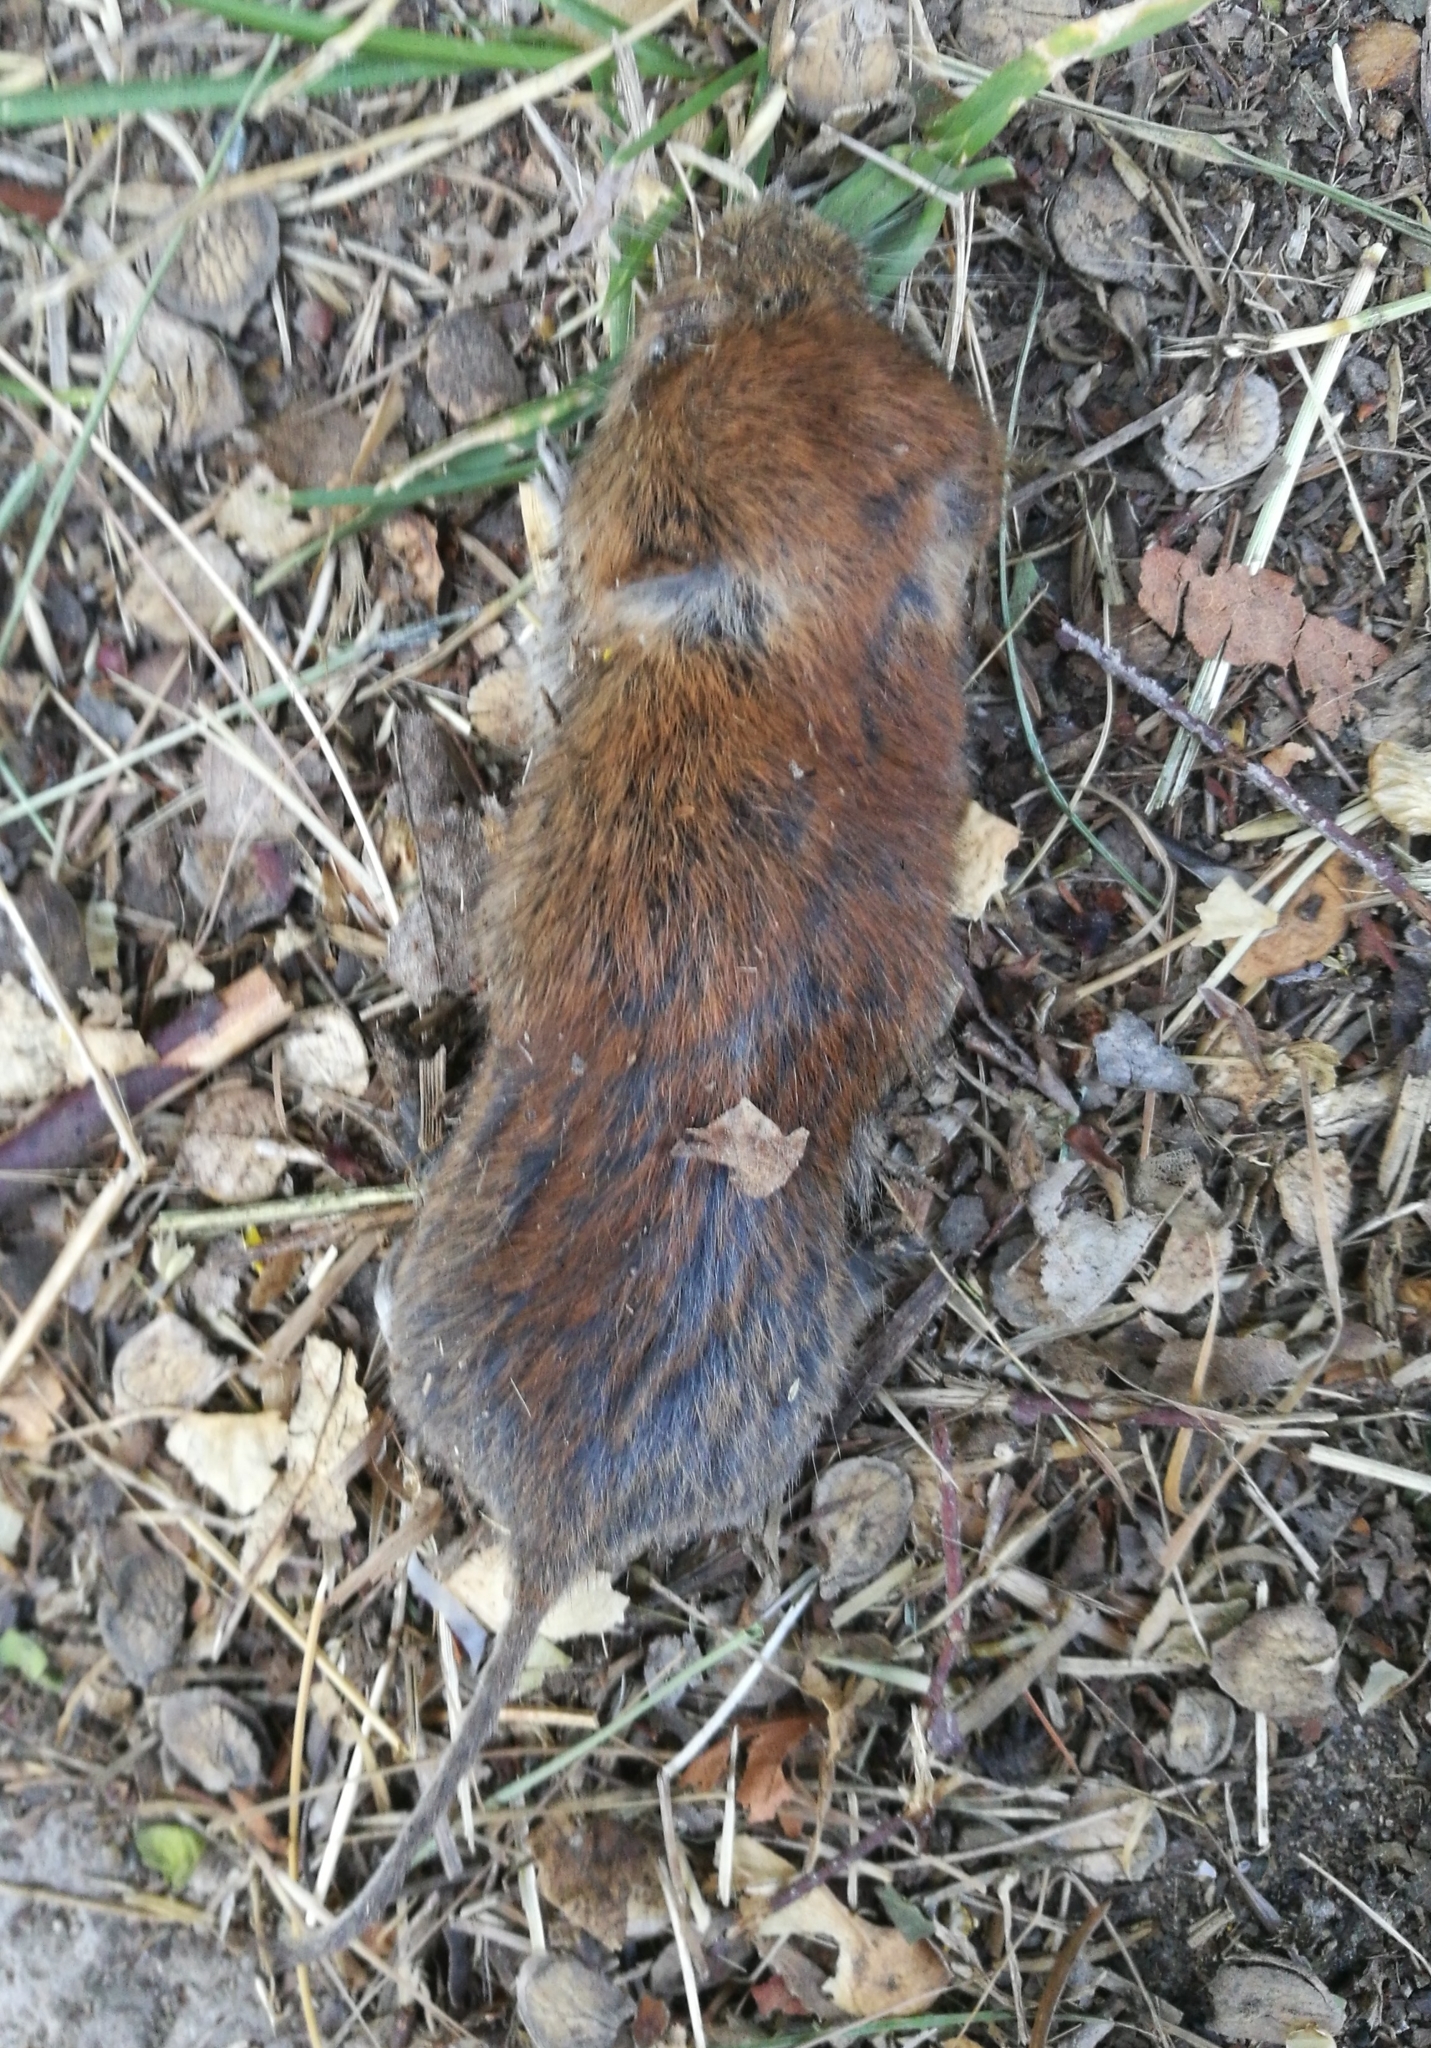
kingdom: Animalia
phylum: Chordata
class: Mammalia
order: Rodentia
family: Cricetidae
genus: Myodes
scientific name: Myodes glareolus
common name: Bank vole
